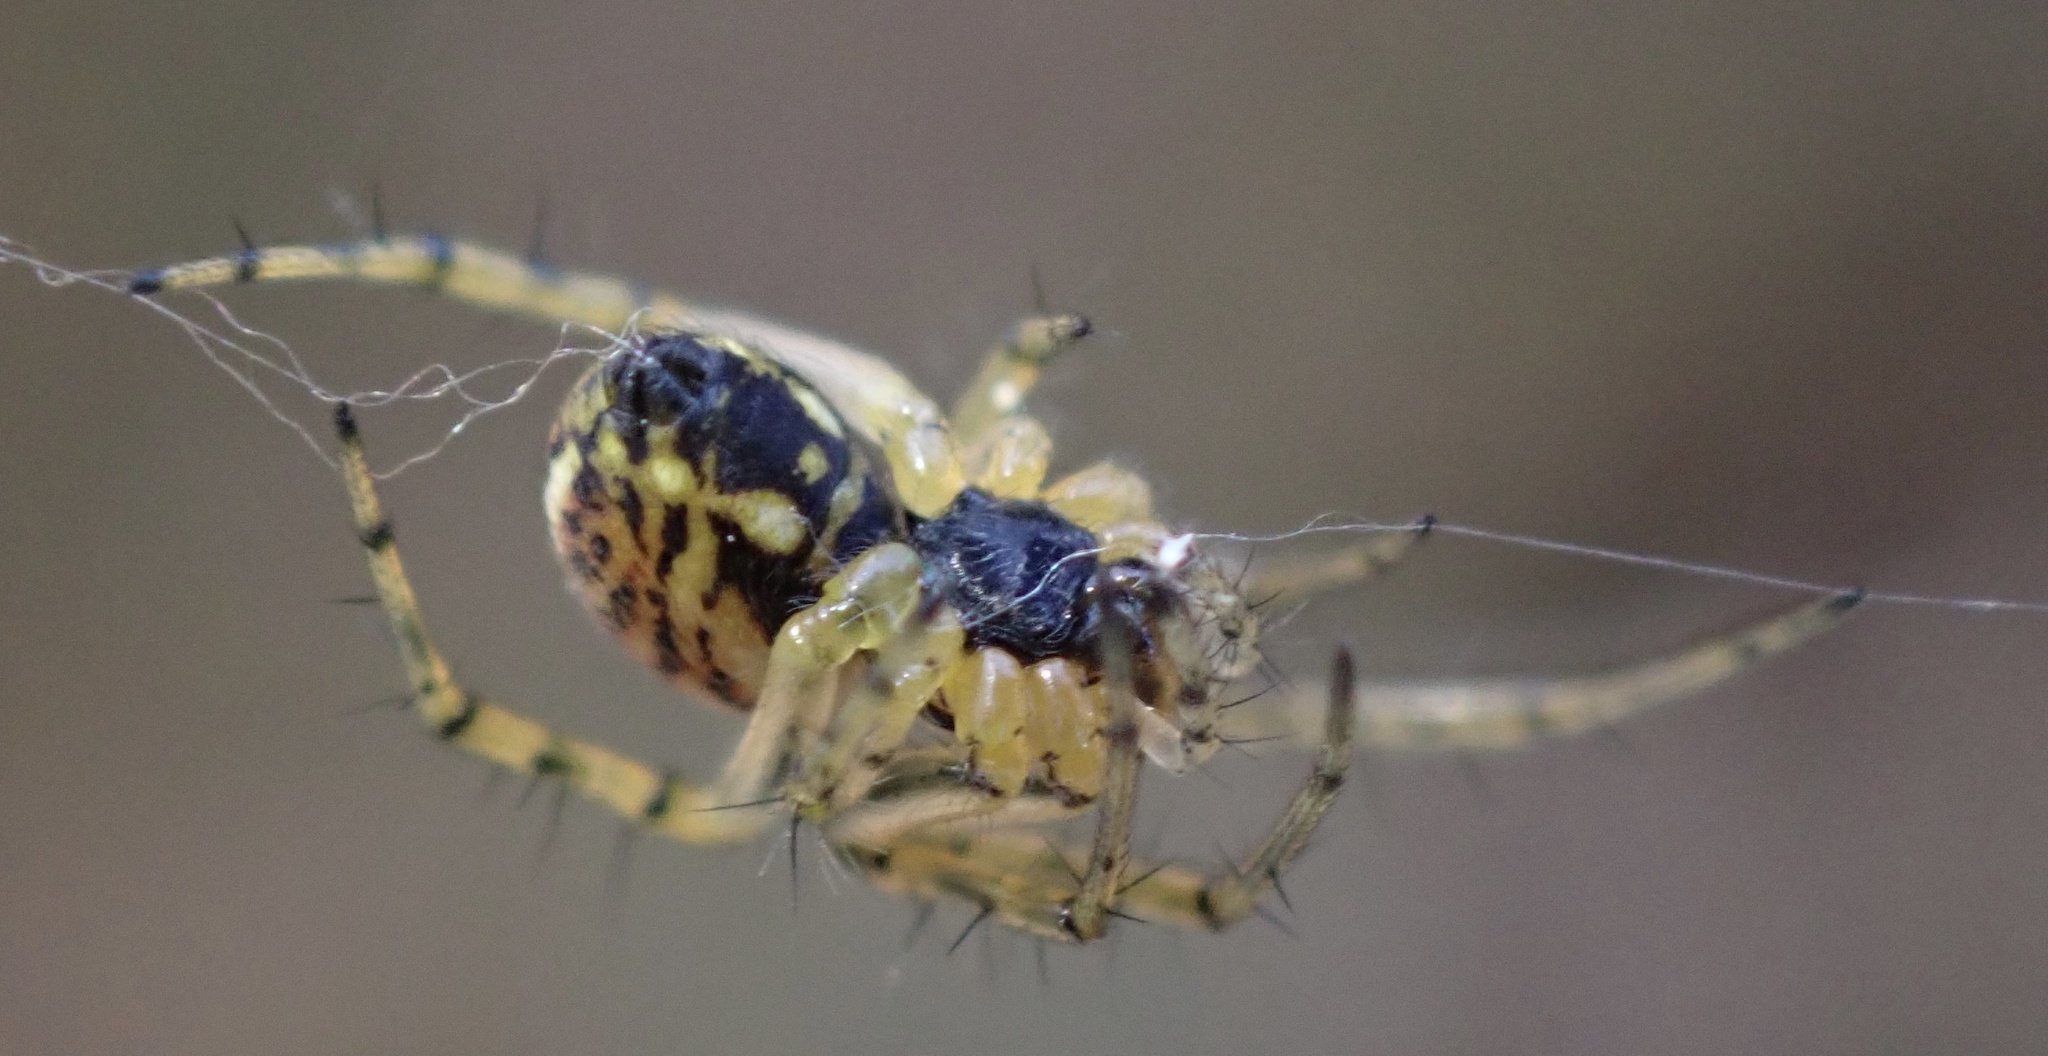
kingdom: Animalia
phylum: Arthropoda
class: Arachnida
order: Araneae
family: Araneidae
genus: Mangora
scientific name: Mangora acalypha
